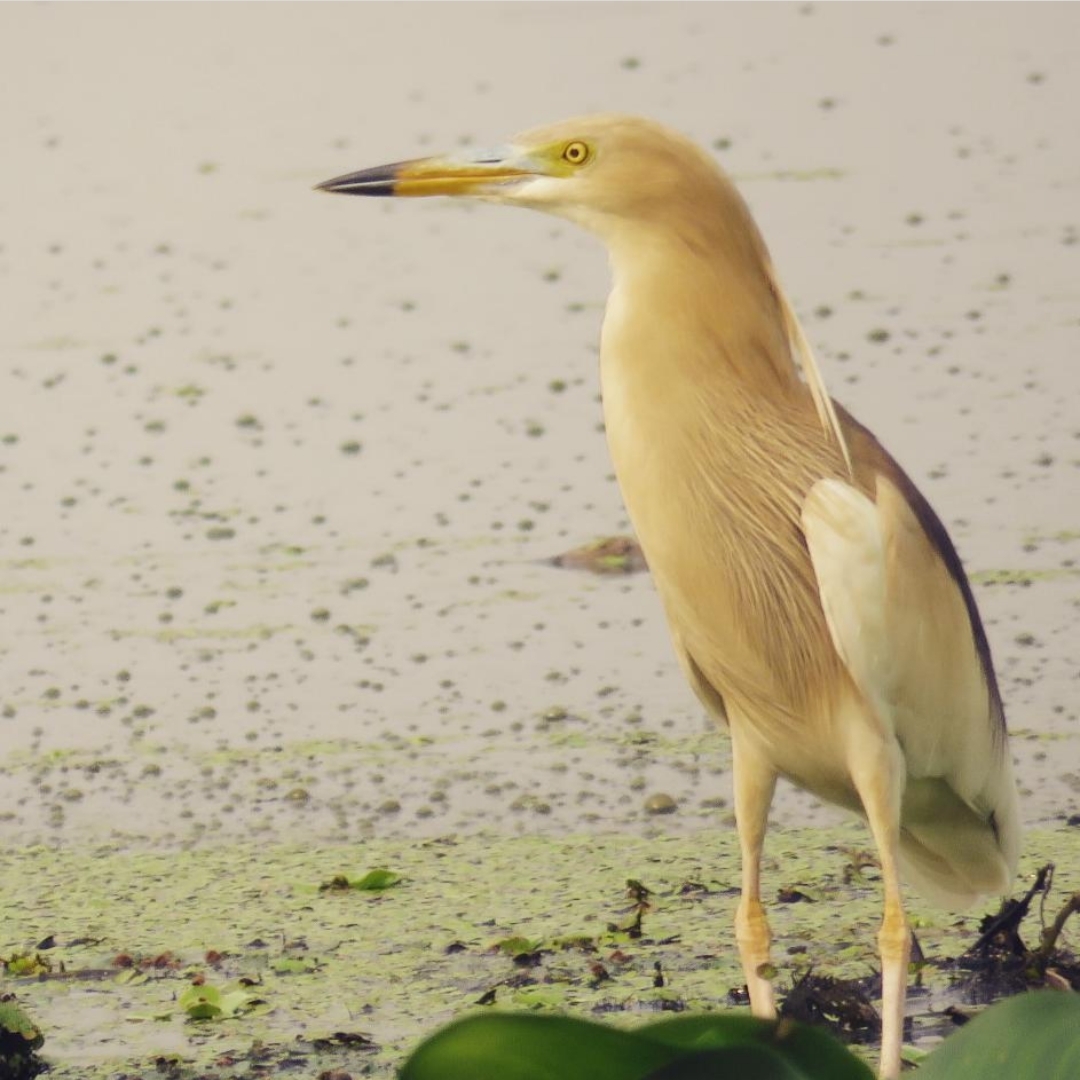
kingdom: Animalia
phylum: Chordata
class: Aves
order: Pelecaniformes
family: Ardeidae
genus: Ardeola
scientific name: Ardeola grayii
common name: Indian pond heron
